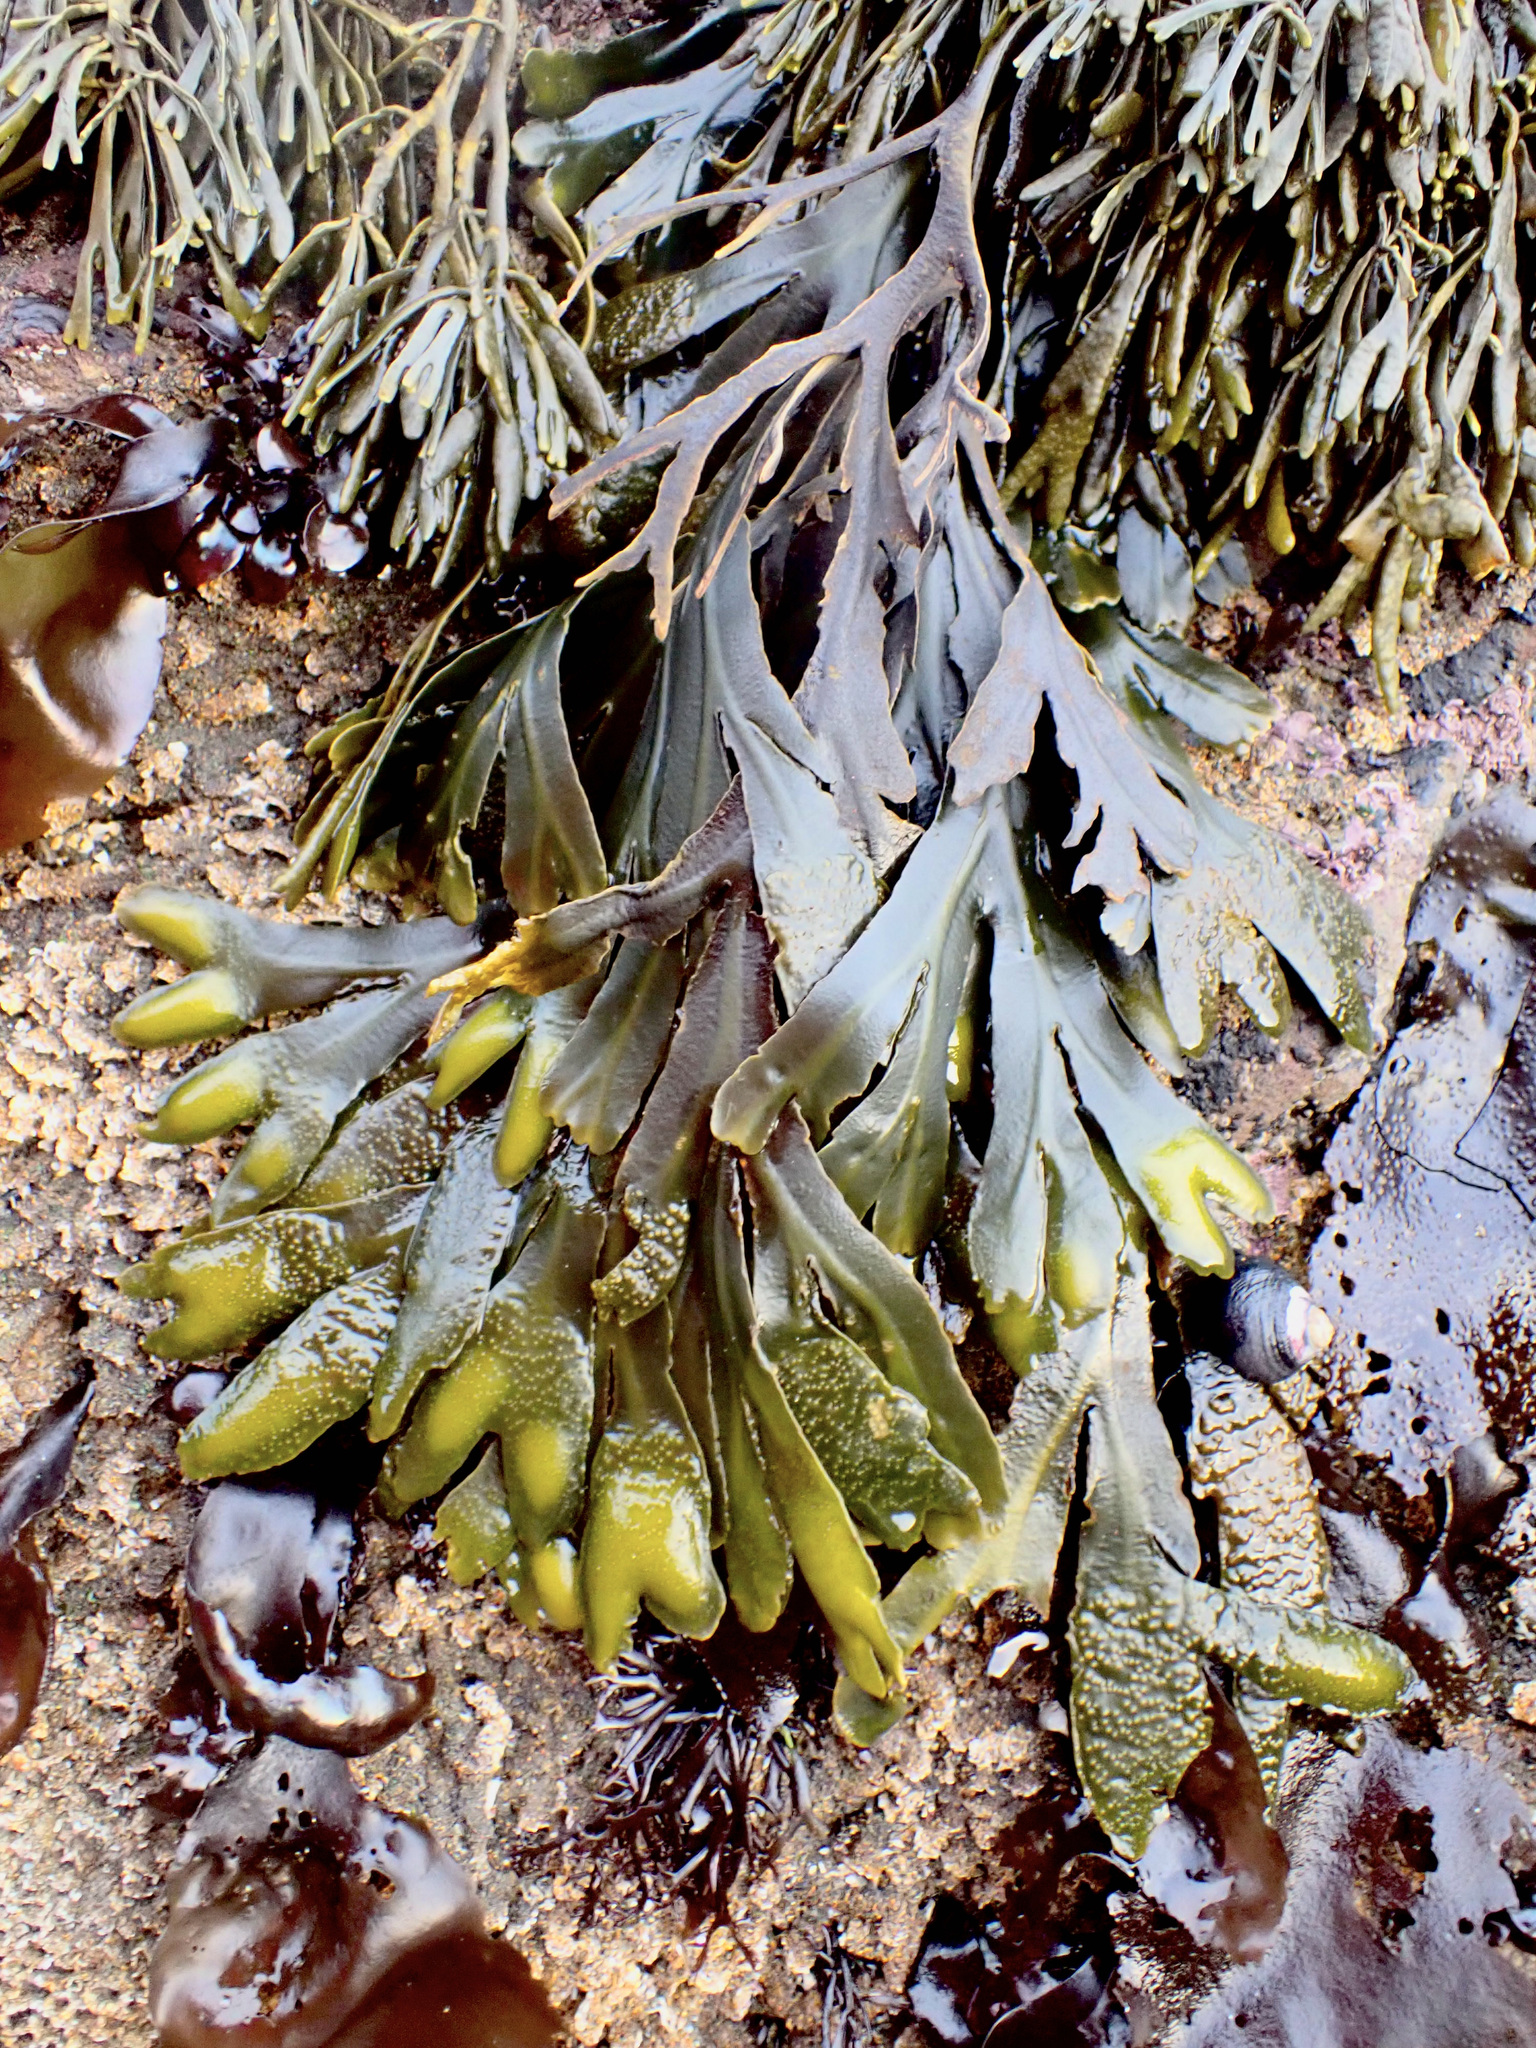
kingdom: Chromista
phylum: Ochrophyta
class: Phaeophyceae
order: Fucales
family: Fucaceae
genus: Fucus
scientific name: Fucus distichus
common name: Rockweed
